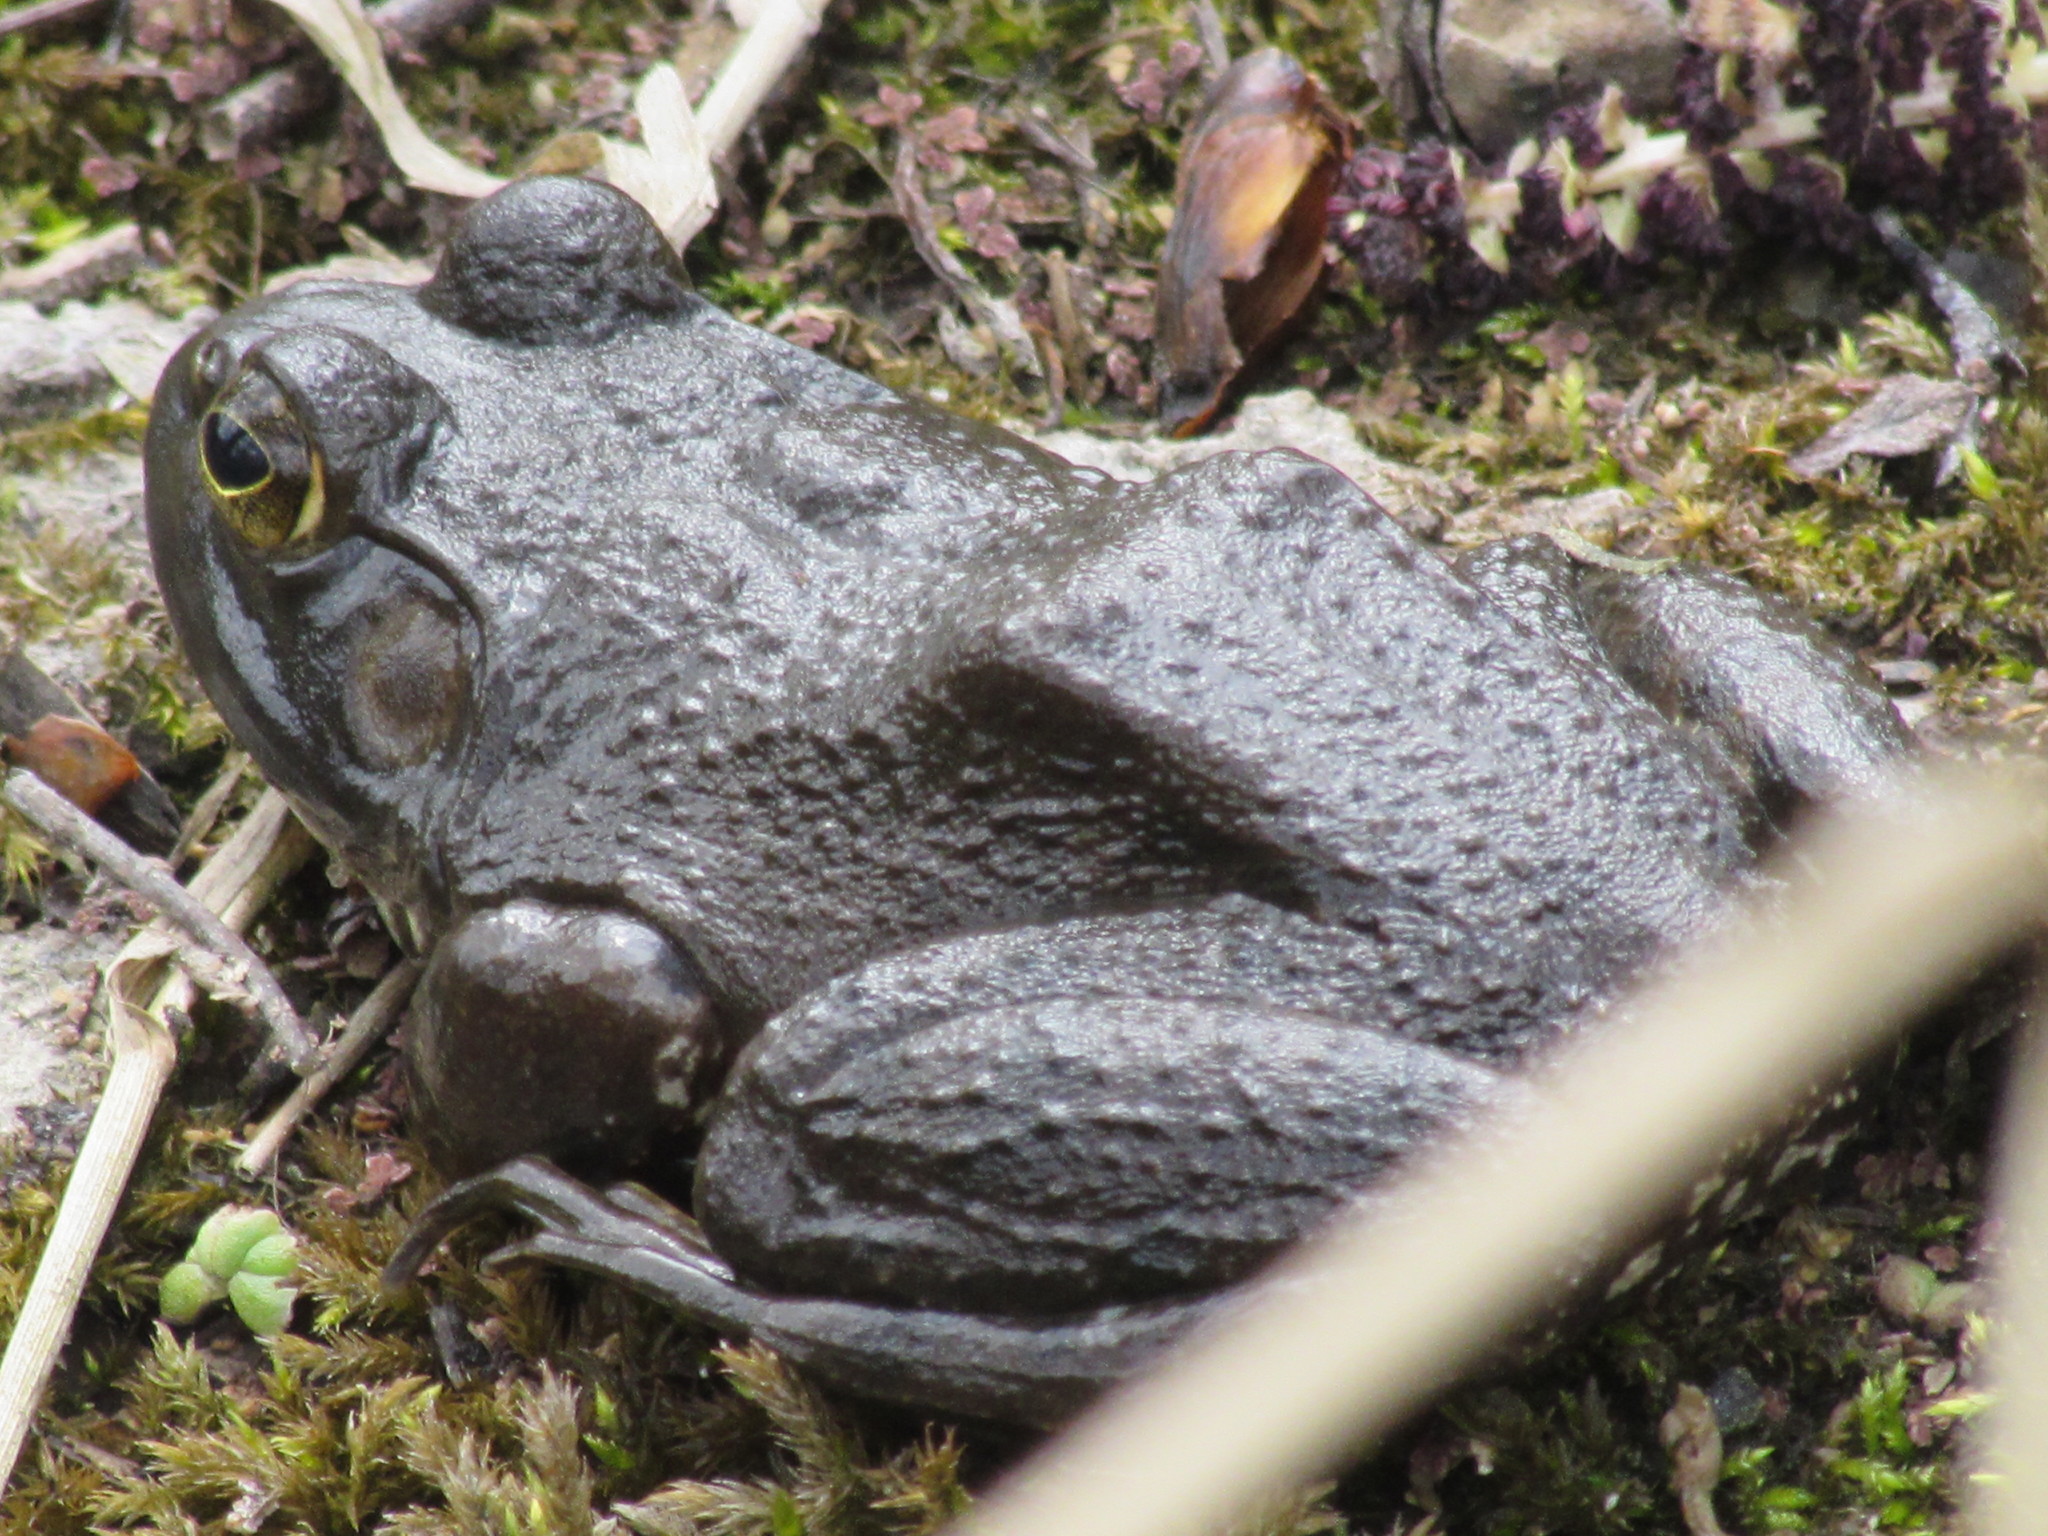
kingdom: Animalia
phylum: Chordata
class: Amphibia
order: Anura
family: Ranidae
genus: Lithobates
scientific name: Lithobates catesbeianus
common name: American bullfrog
